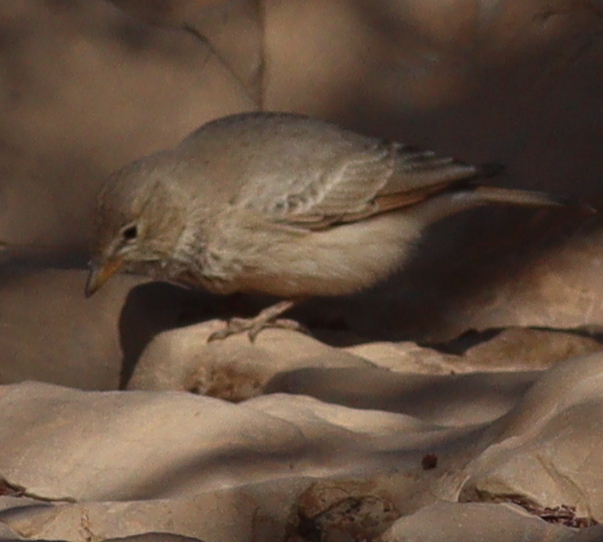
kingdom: Animalia
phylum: Chordata
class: Aves
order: Passeriformes
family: Alaudidae
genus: Ammomanes
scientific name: Ammomanes deserti
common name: Desert lark
